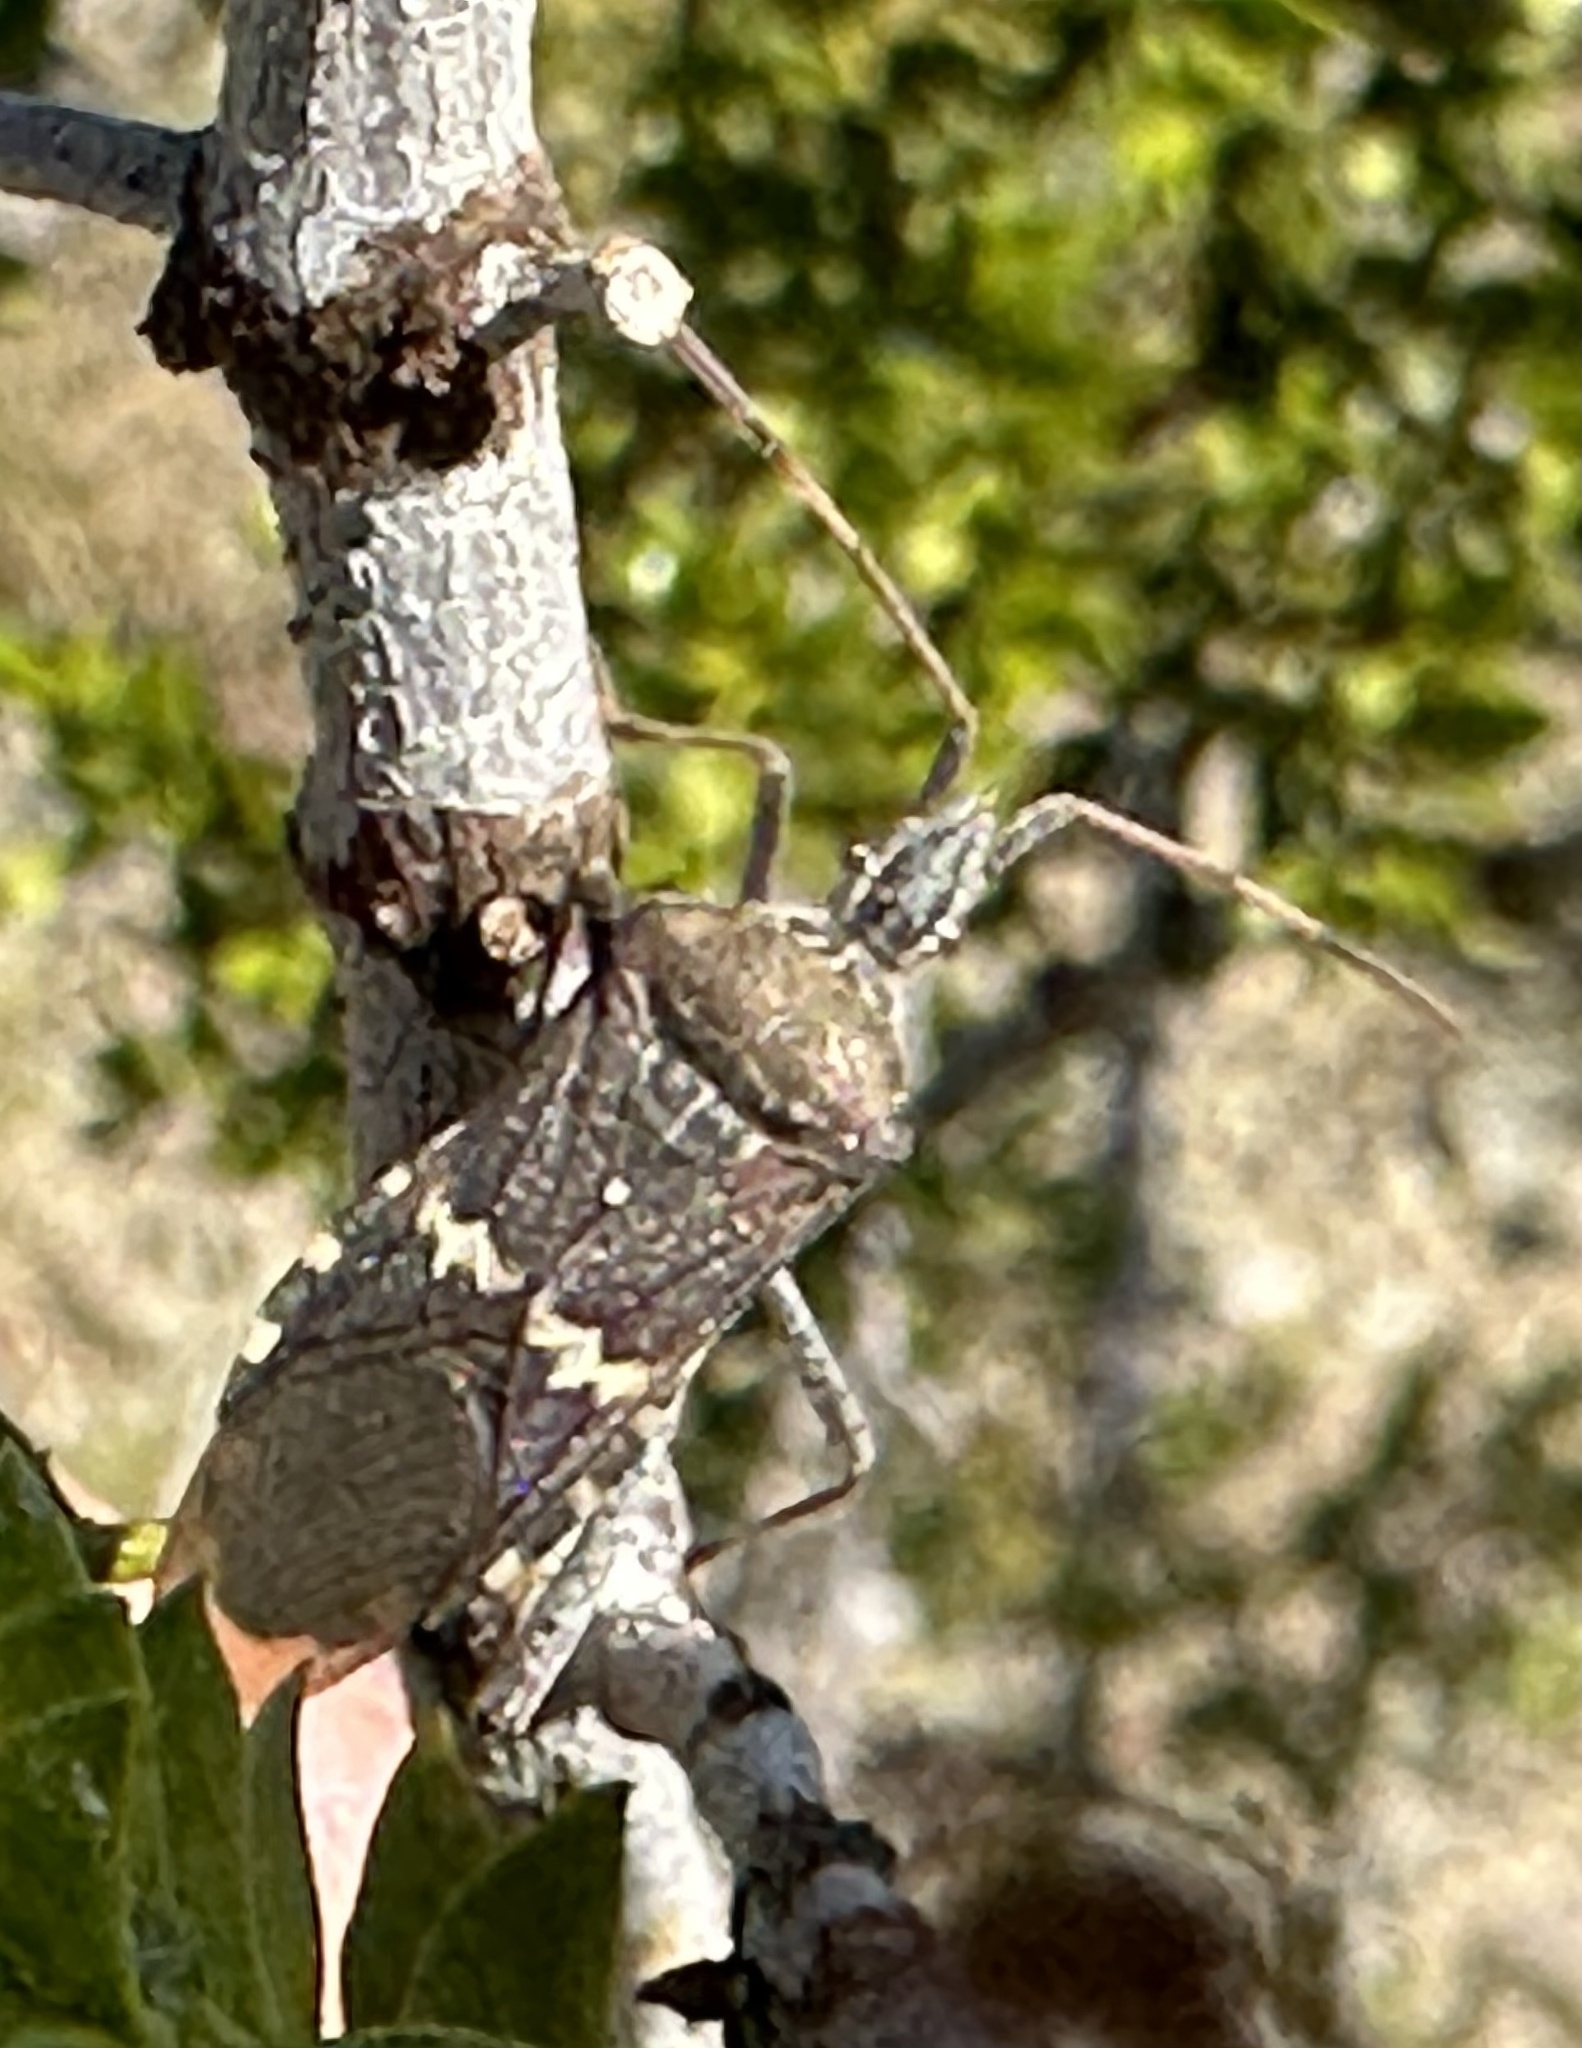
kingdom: Animalia
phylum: Arthropoda
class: Insecta
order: Hemiptera
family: Coreidae
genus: Leptoglossus
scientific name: Leptoglossus clypealis
